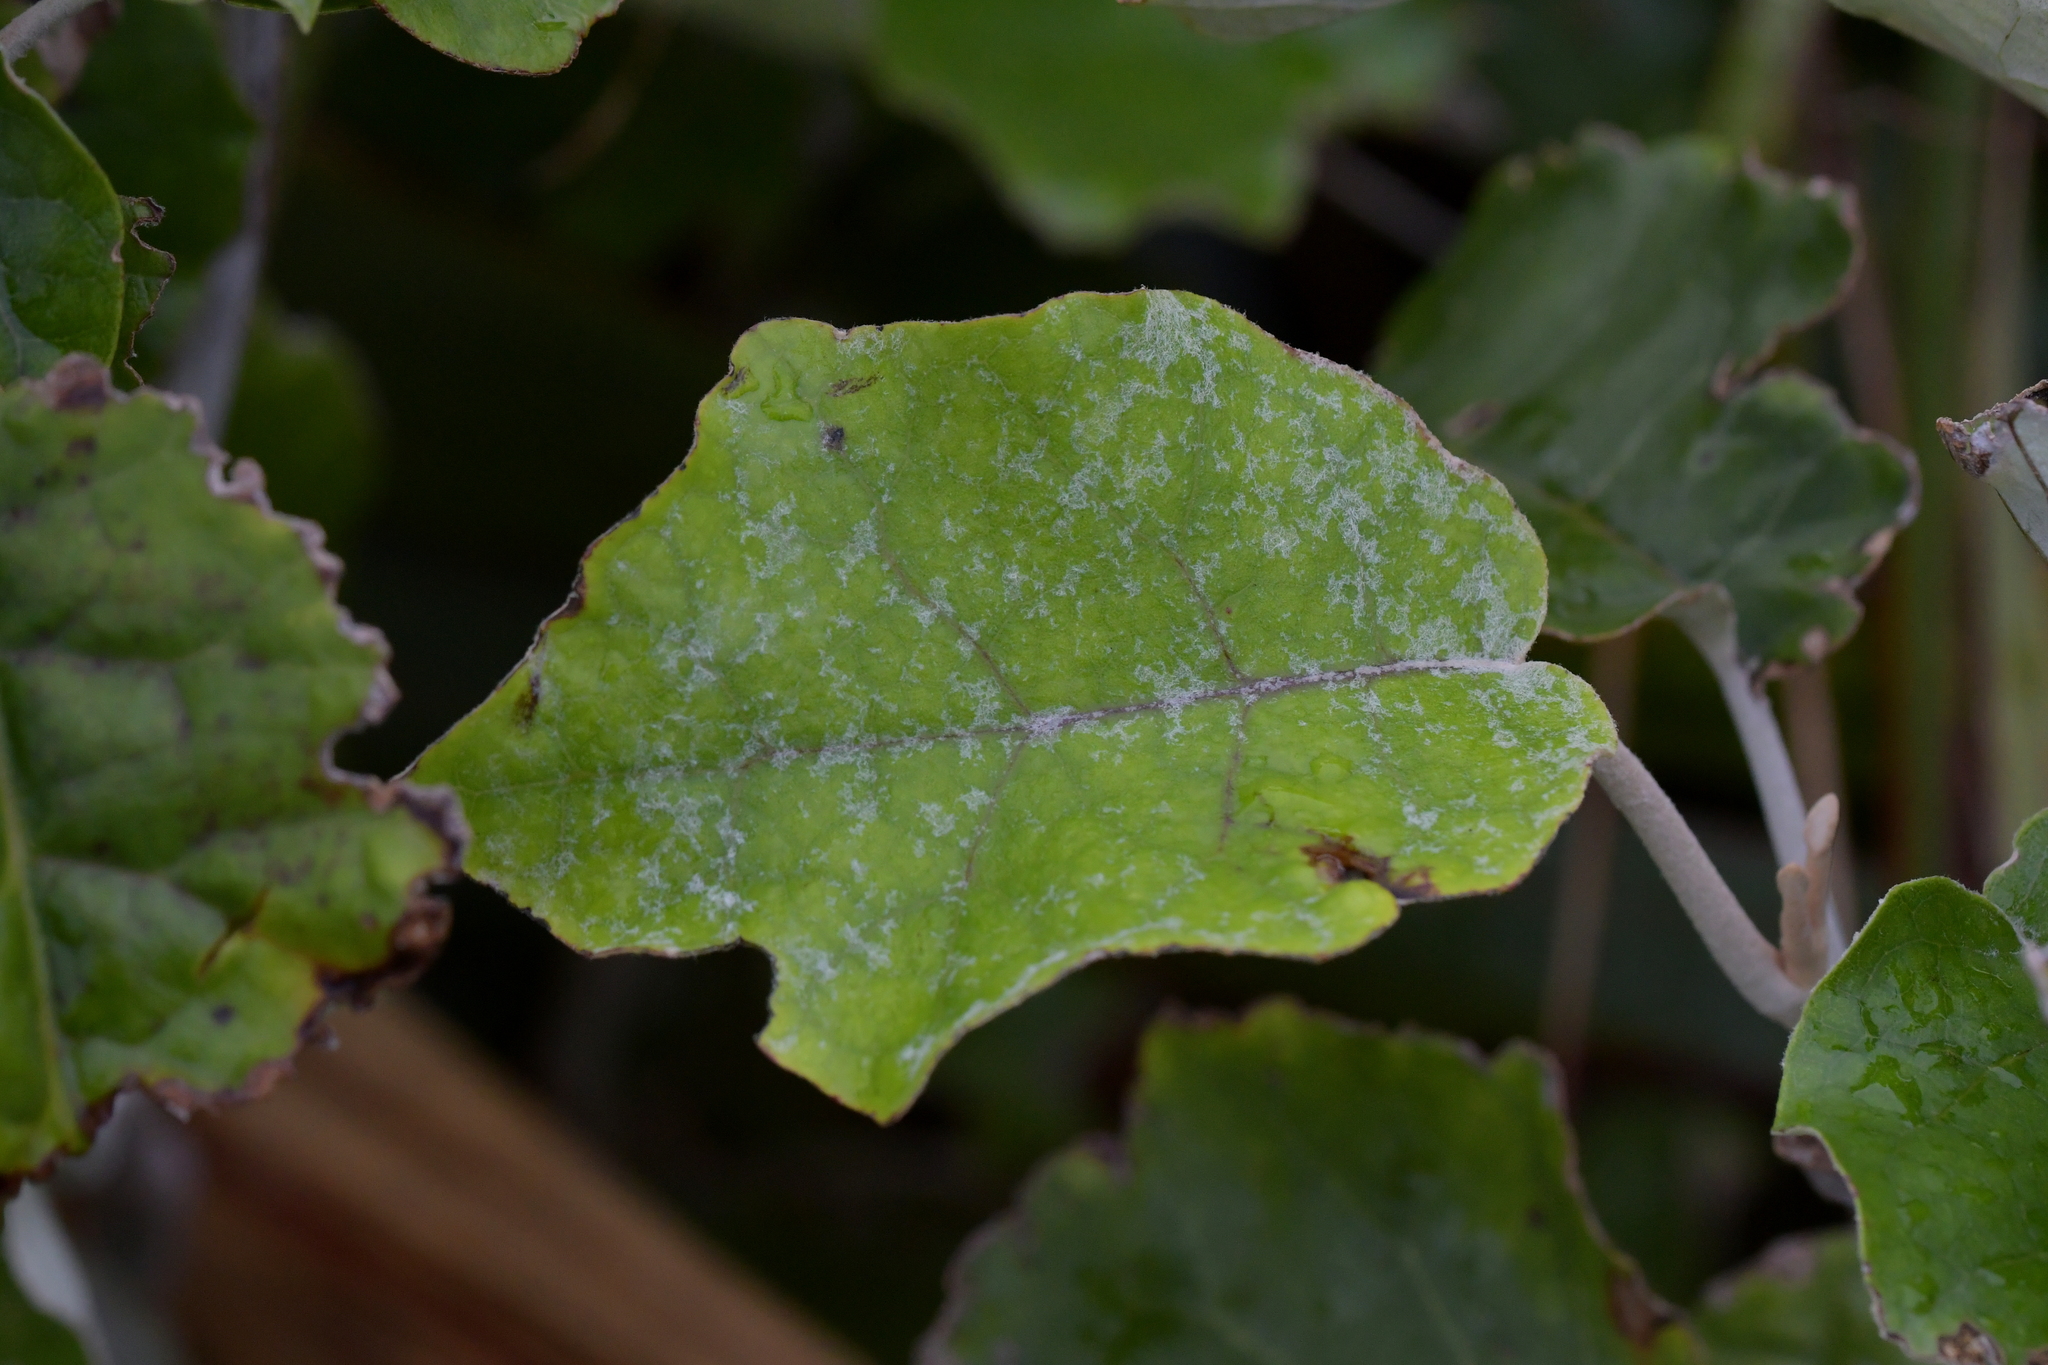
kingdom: Plantae
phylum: Tracheophyta
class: Magnoliopsida
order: Asterales
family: Asteraceae
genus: Brachyglottis
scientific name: Brachyglottis repanda
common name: Hedge ragwort
